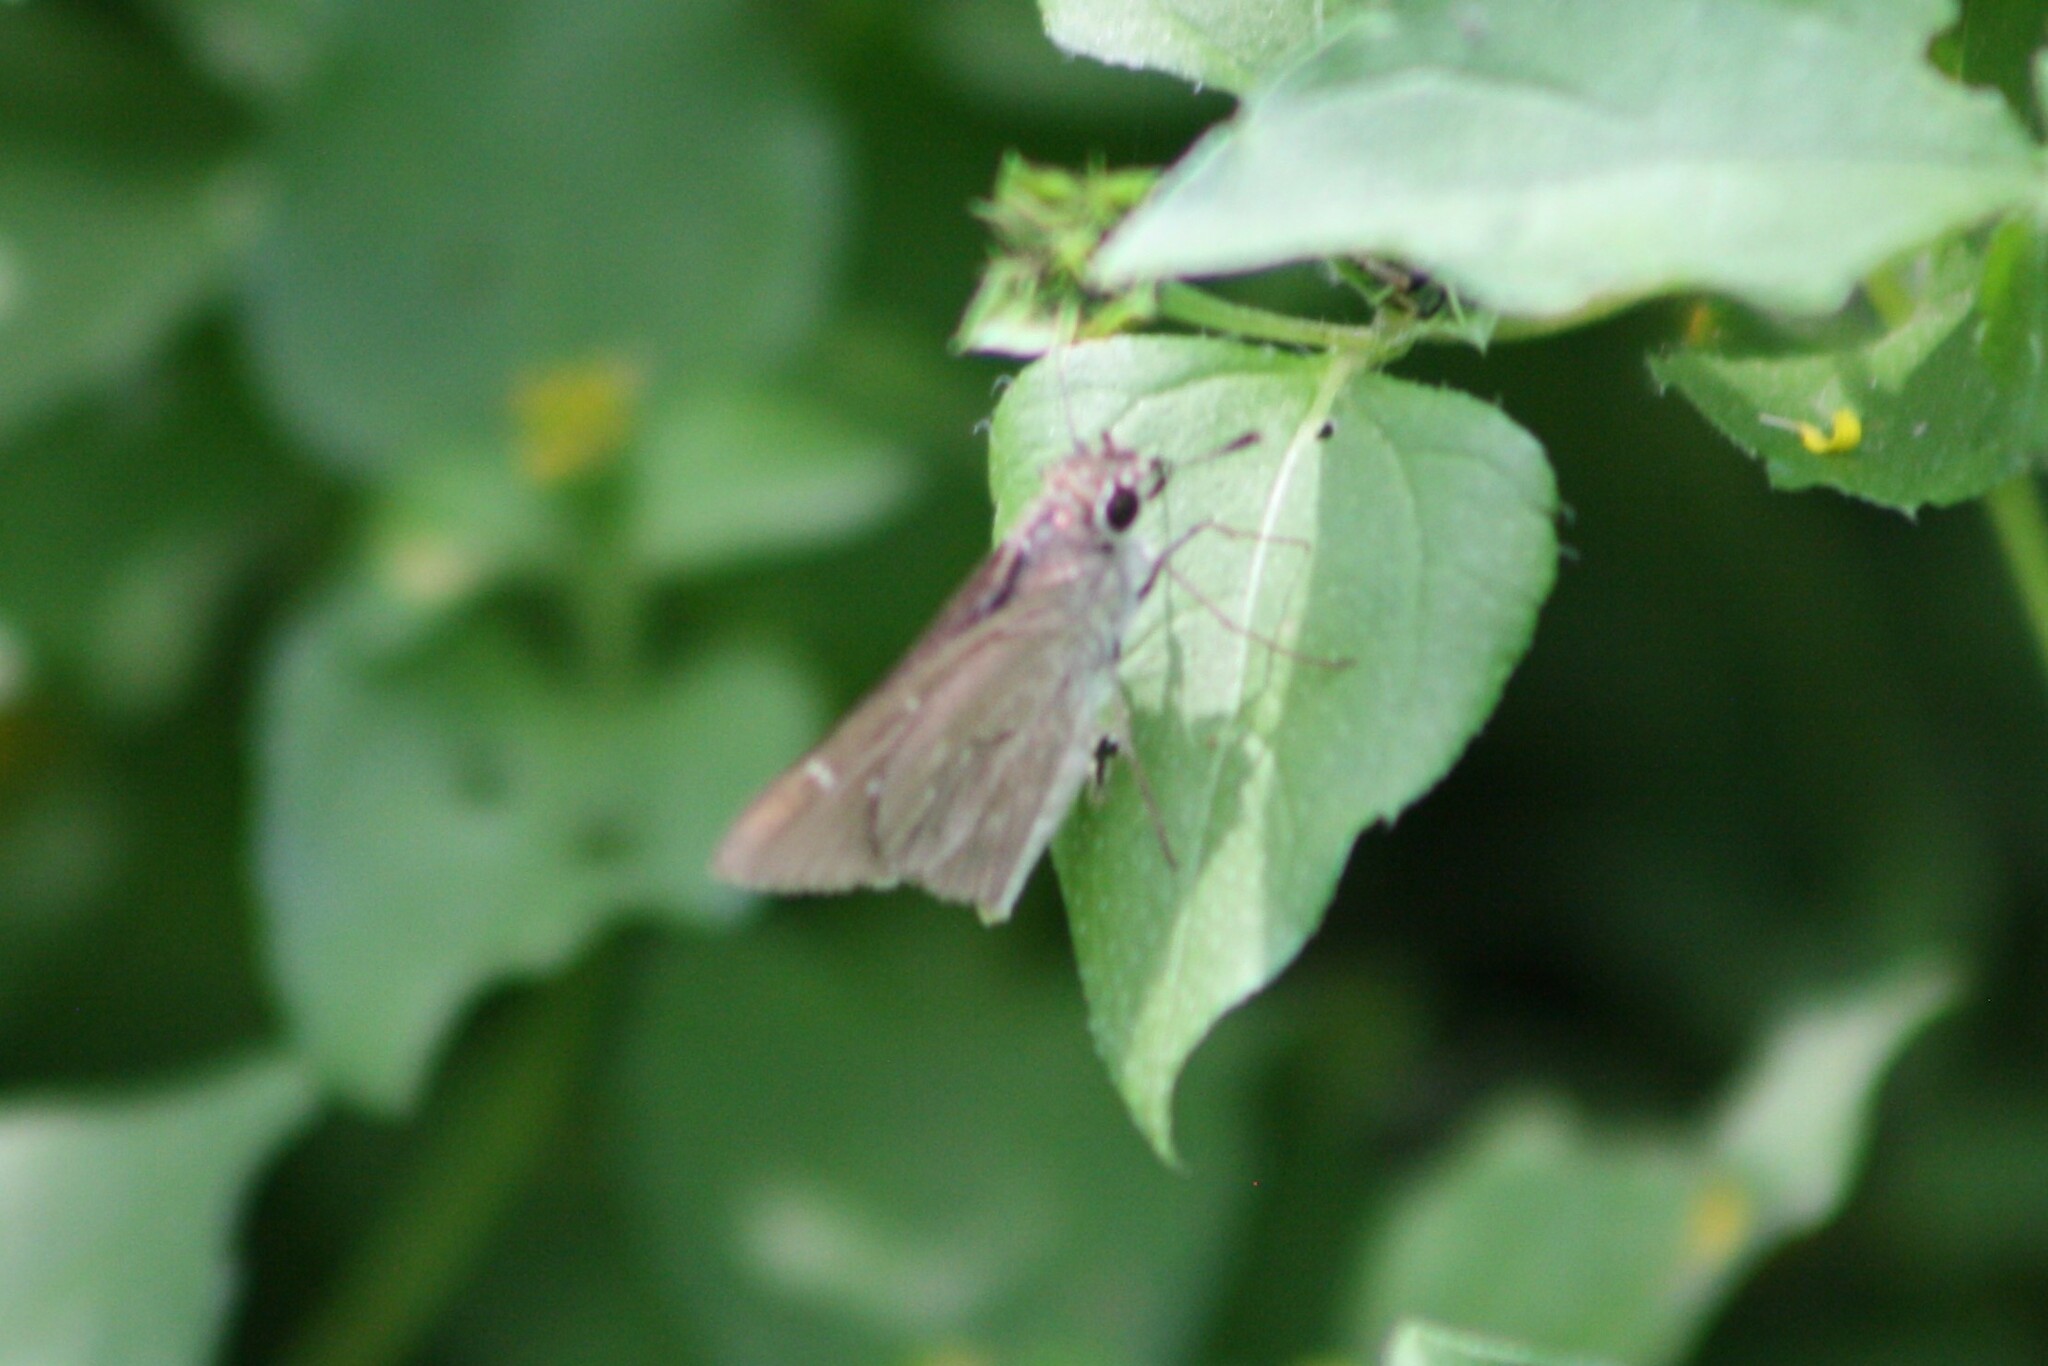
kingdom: Animalia
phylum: Arthropoda
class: Insecta
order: Lepidoptera
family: Hesperiidae
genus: Lerodea
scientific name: Lerodea eufala
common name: Eufala skipper
